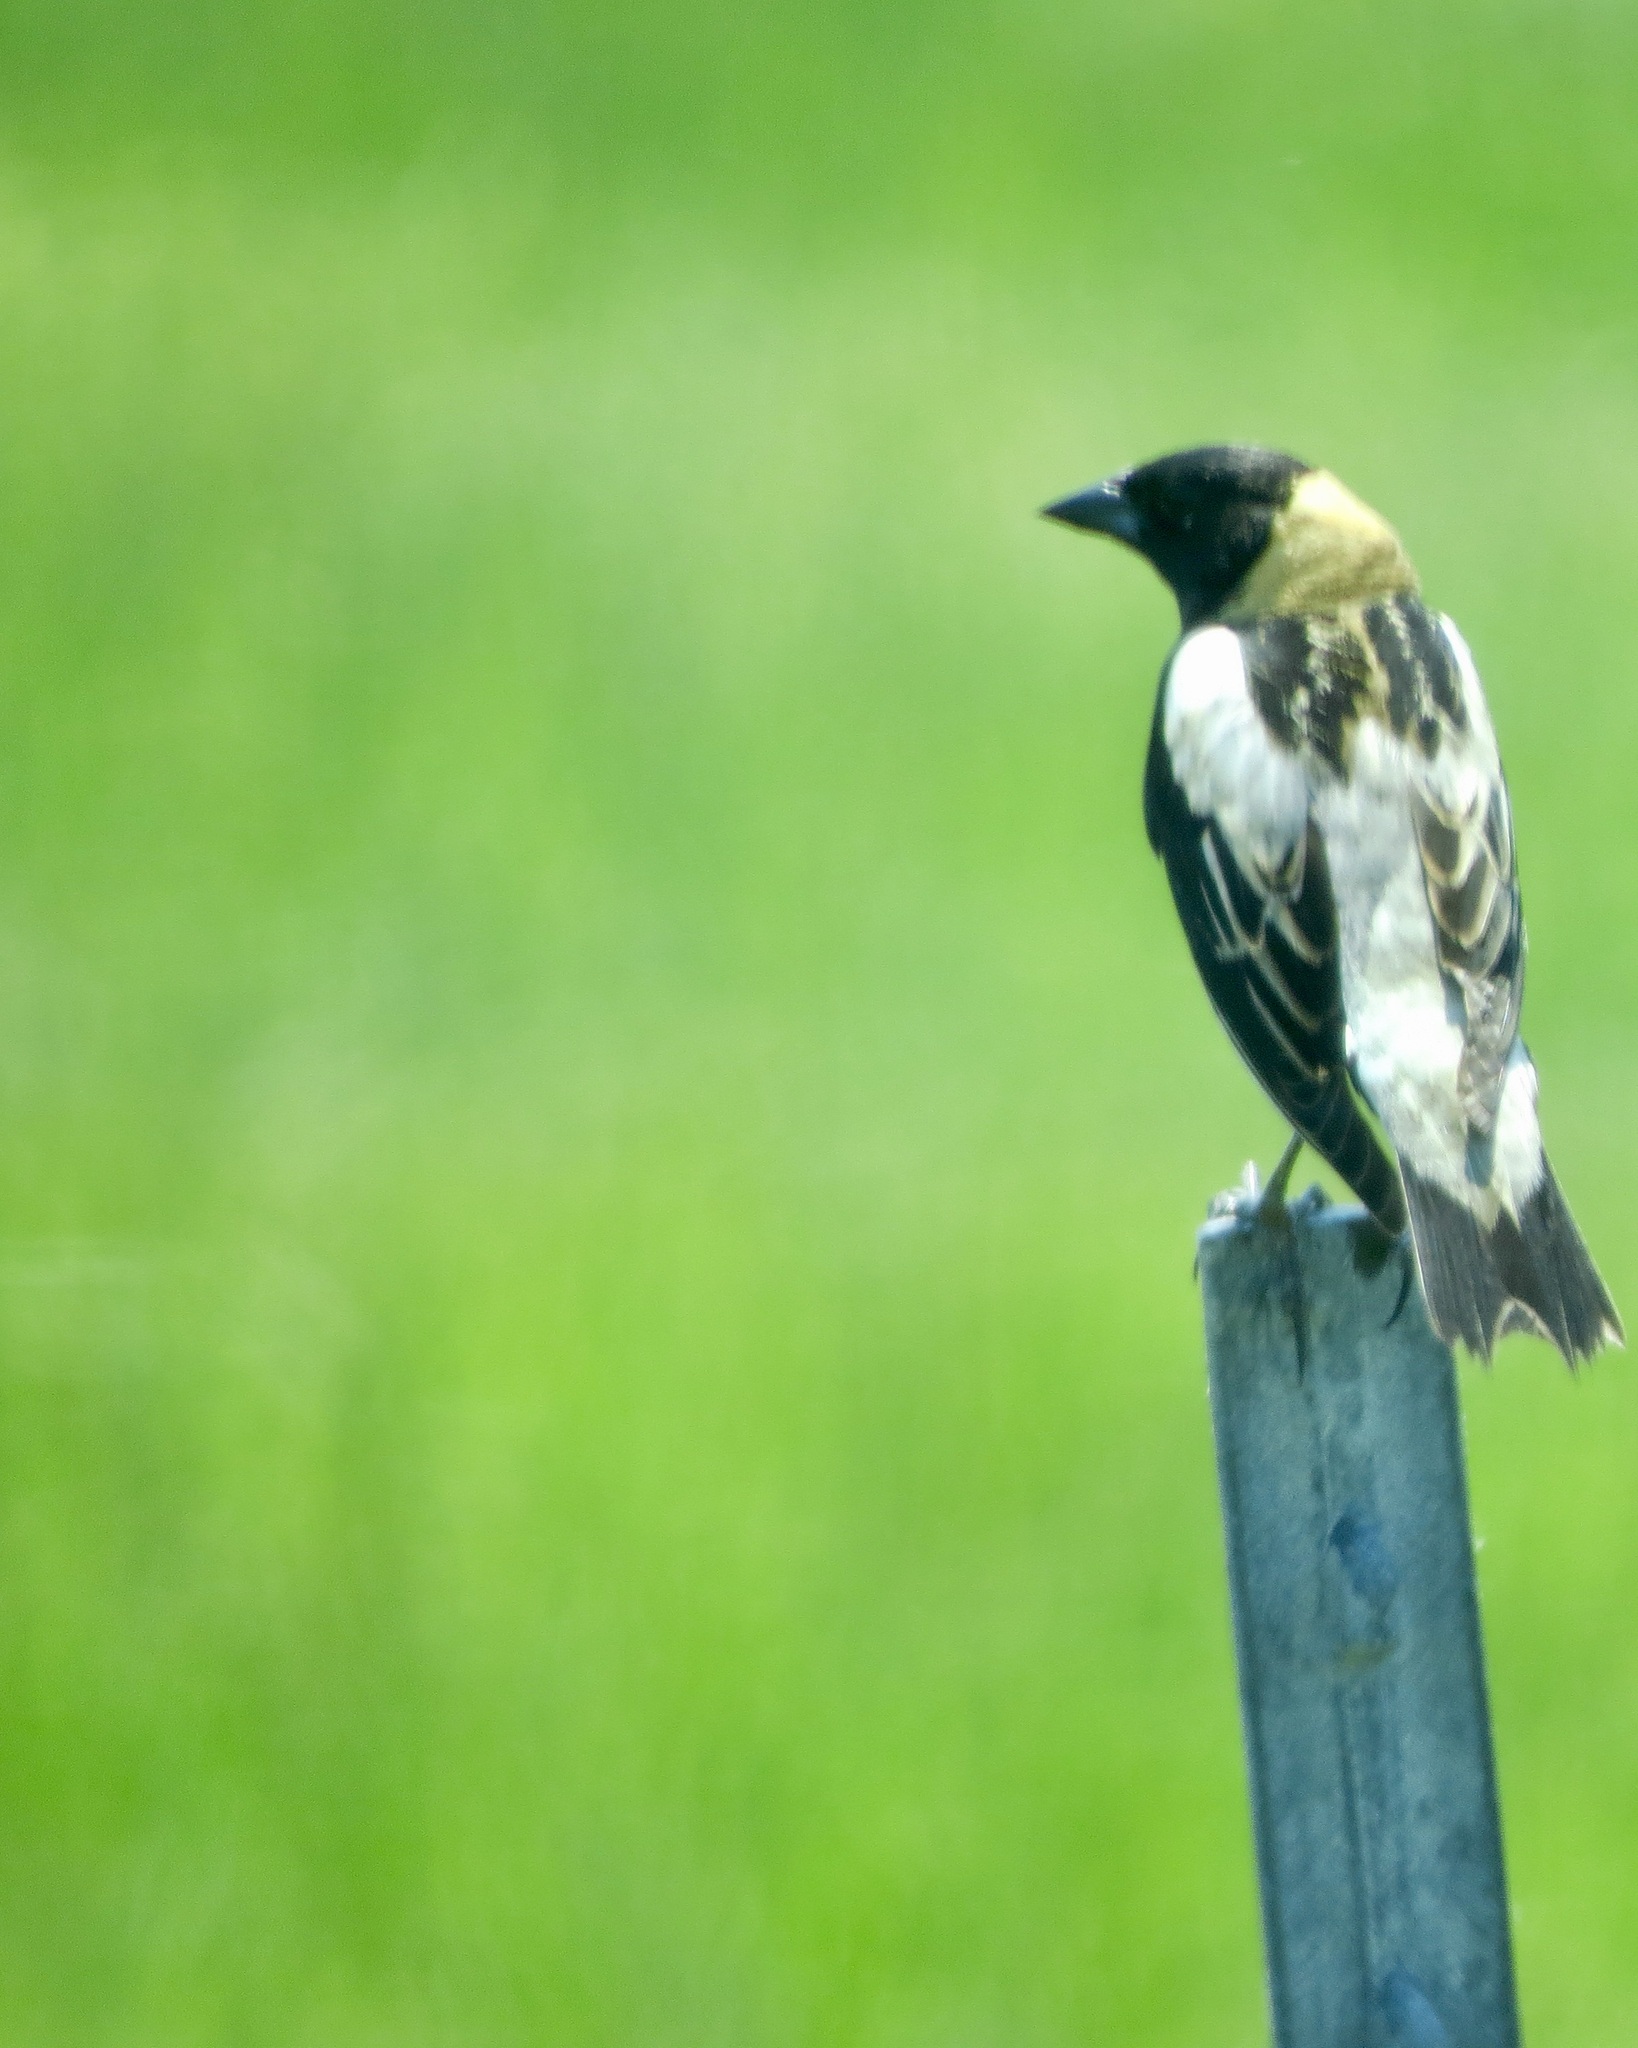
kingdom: Animalia
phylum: Chordata
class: Aves
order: Passeriformes
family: Icteridae
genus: Dolichonyx
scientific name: Dolichonyx oryzivorus
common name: Bobolink
